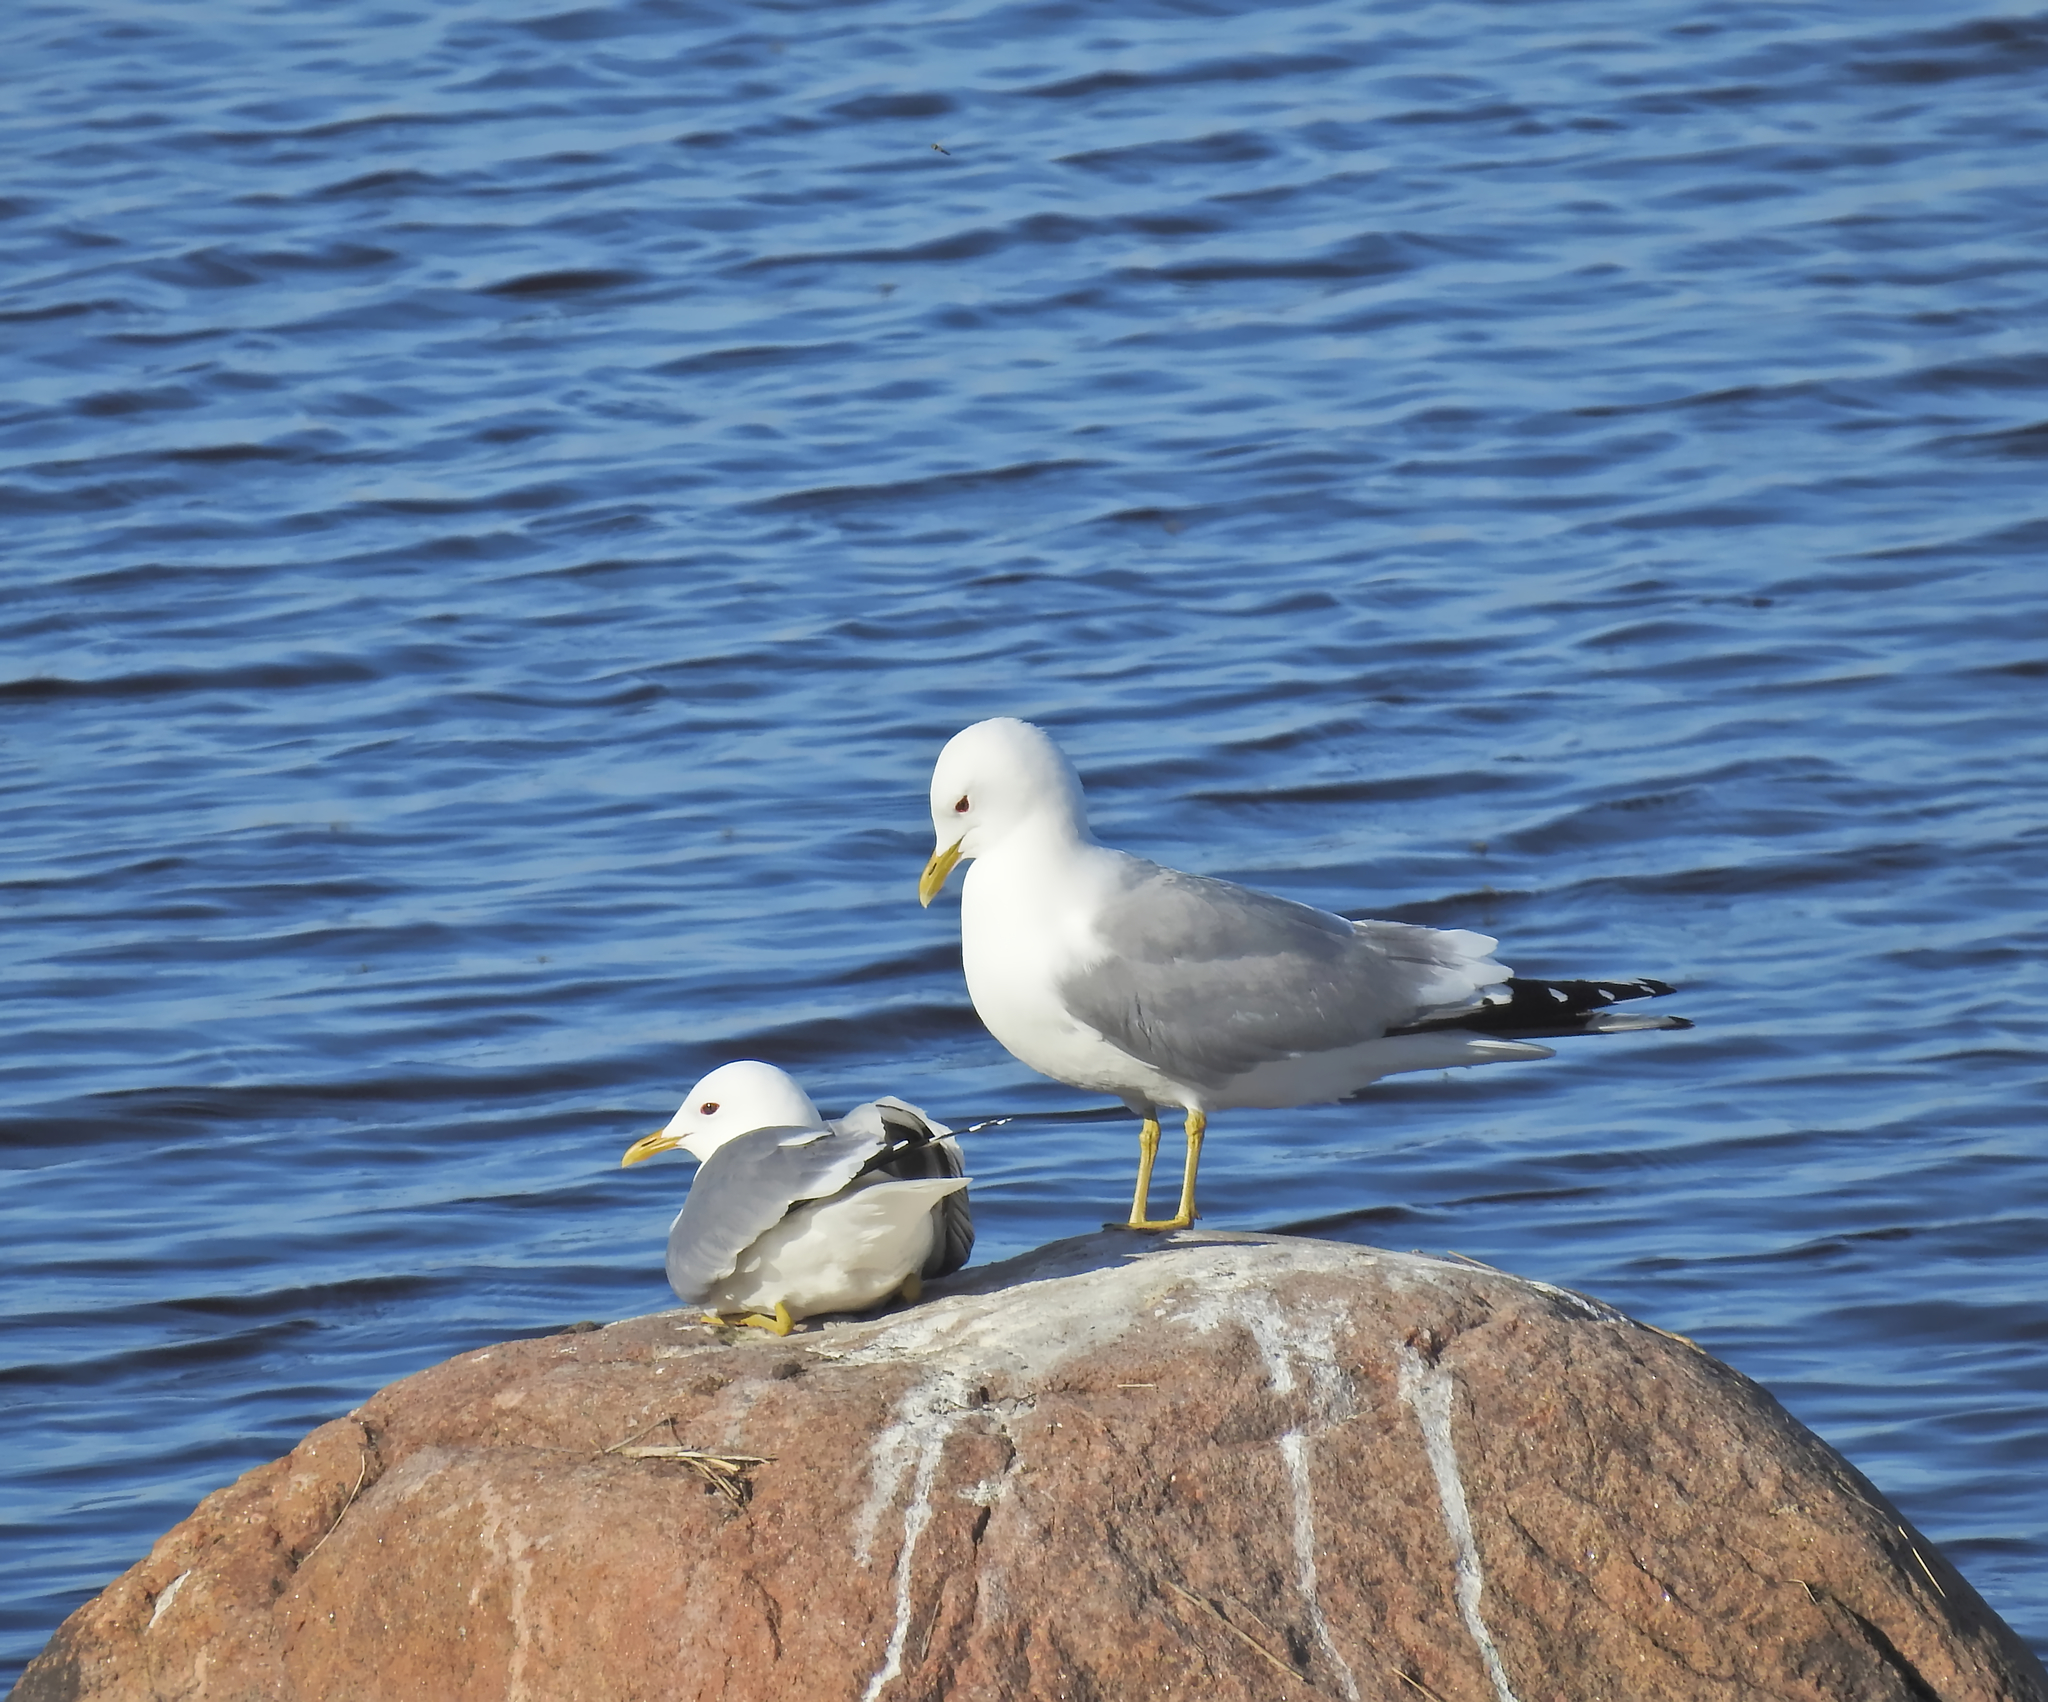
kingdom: Animalia
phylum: Chordata
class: Aves
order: Charadriiformes
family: Laridae
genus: Larus
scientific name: Larus canus
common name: Mew gull
